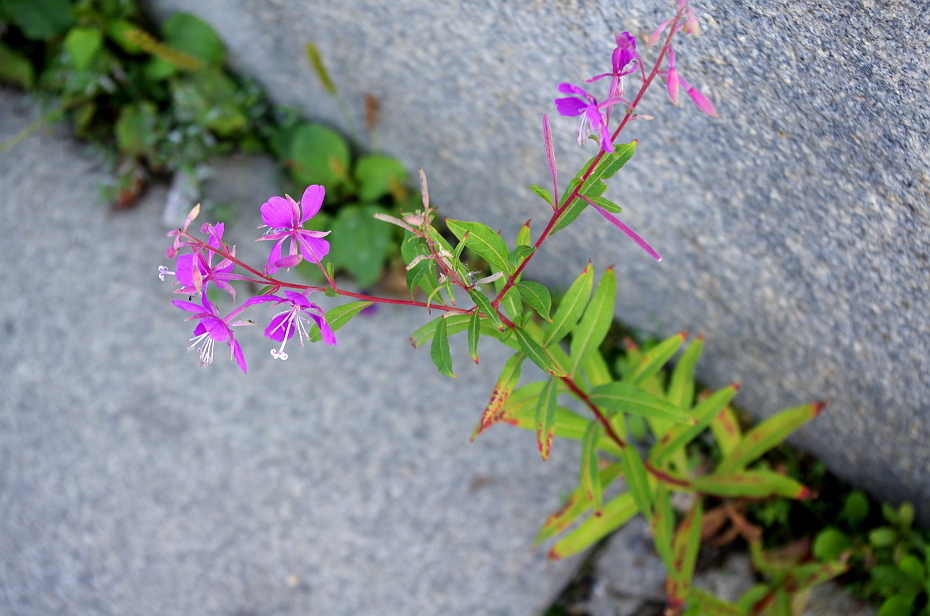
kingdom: Plantae
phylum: Tracheophyta
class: Magnoliopsida
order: Myrtales
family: Onagraceae
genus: Chamaenerion
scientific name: Chamaenerion angustifolium
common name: Fireweed
